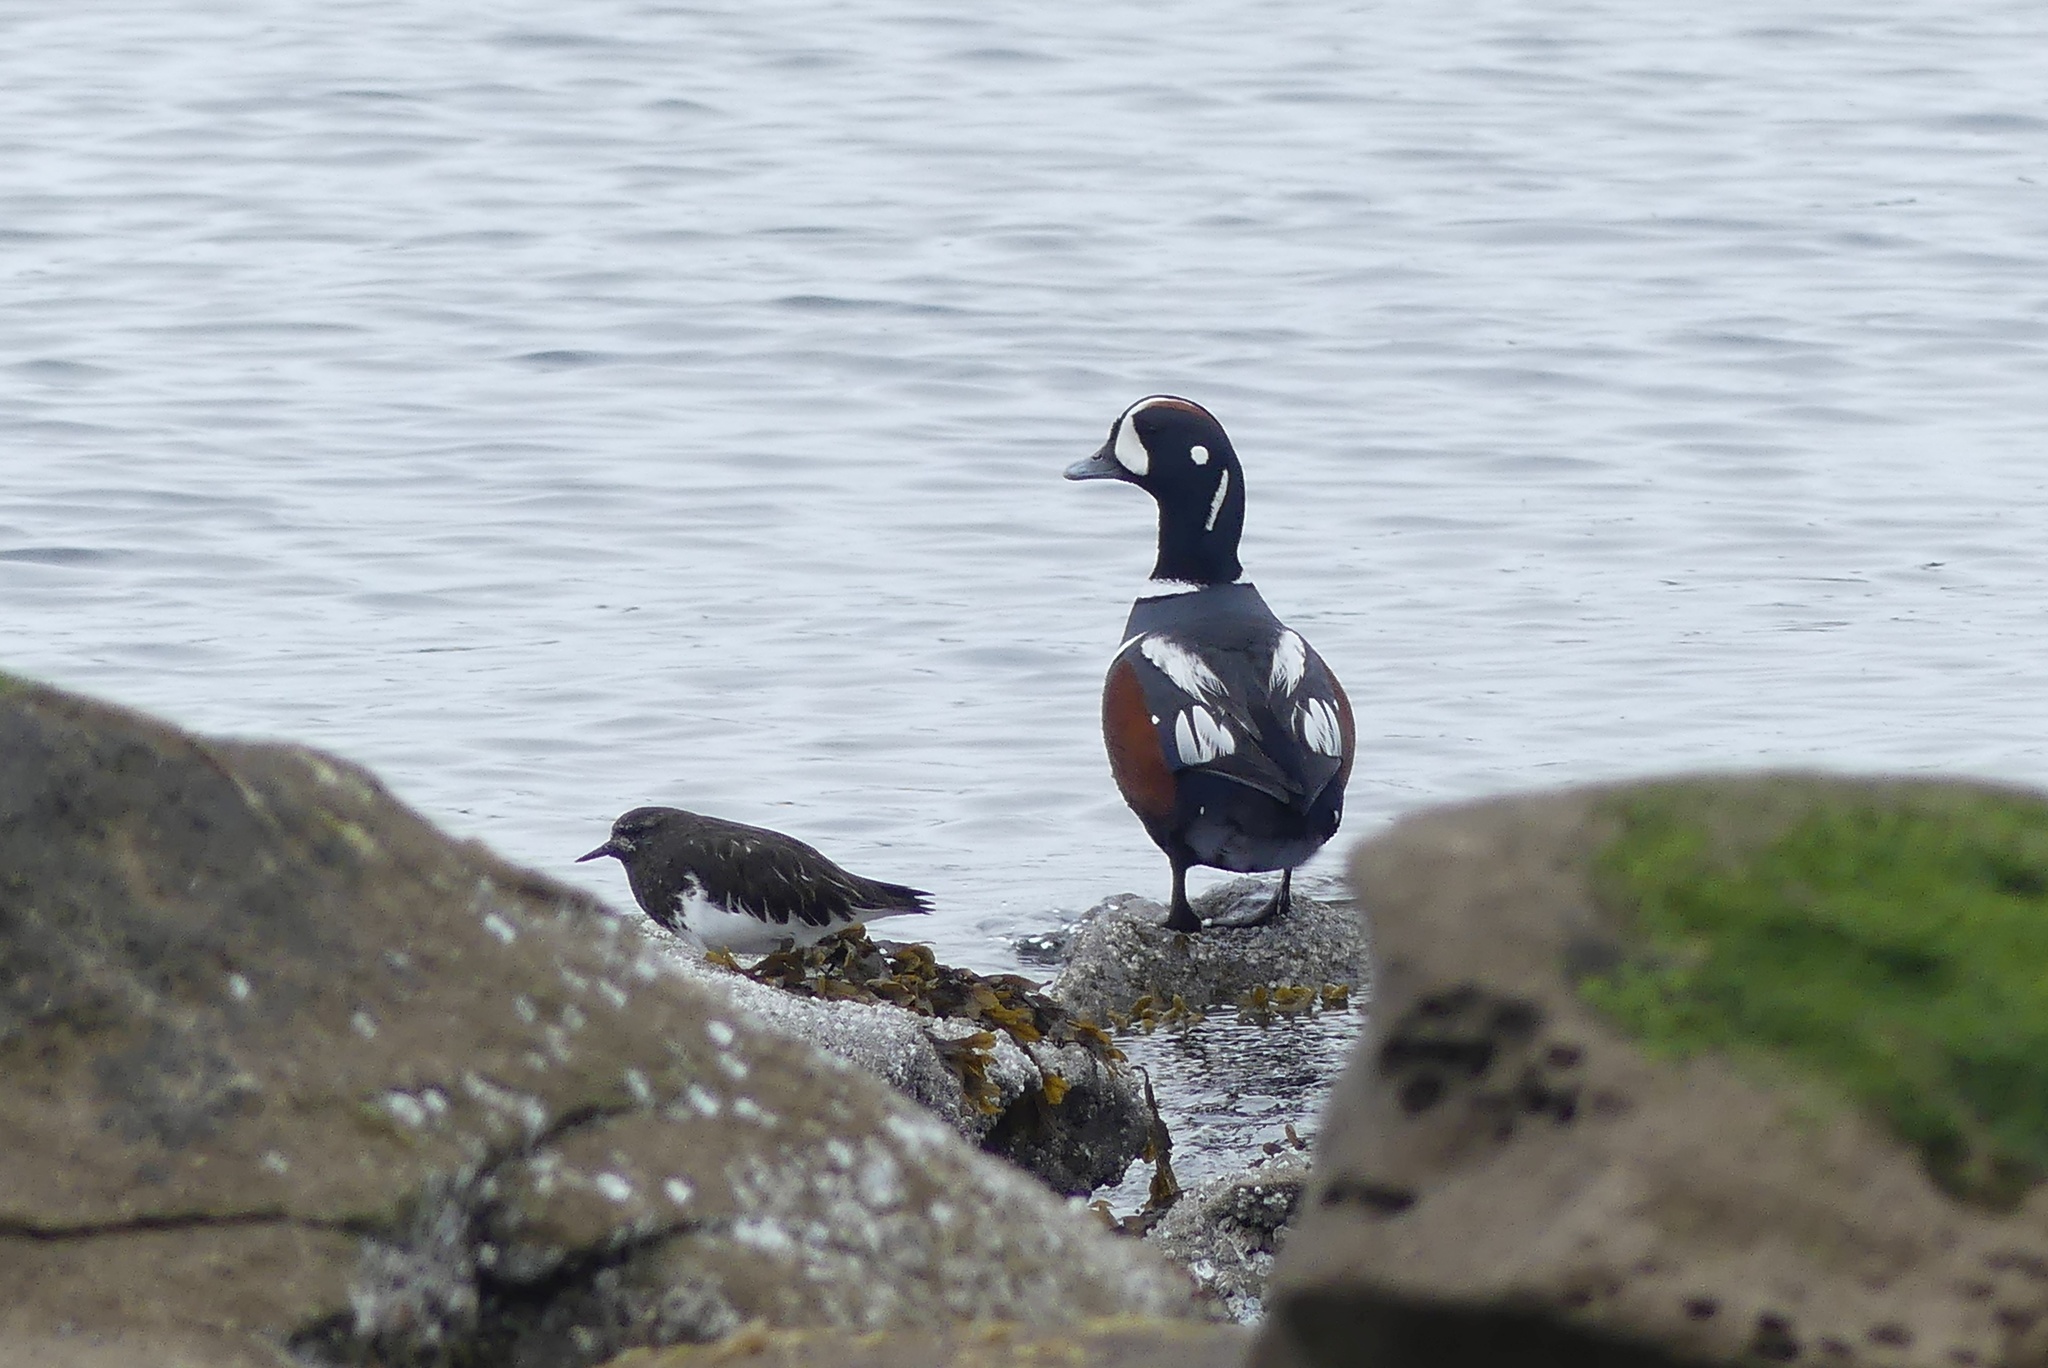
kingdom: Animalia
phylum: Chordata
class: Aves
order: Anseriformes
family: Anatidae
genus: Histrionicus
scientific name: Histrionicus histrionicus
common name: Harlequin duck
